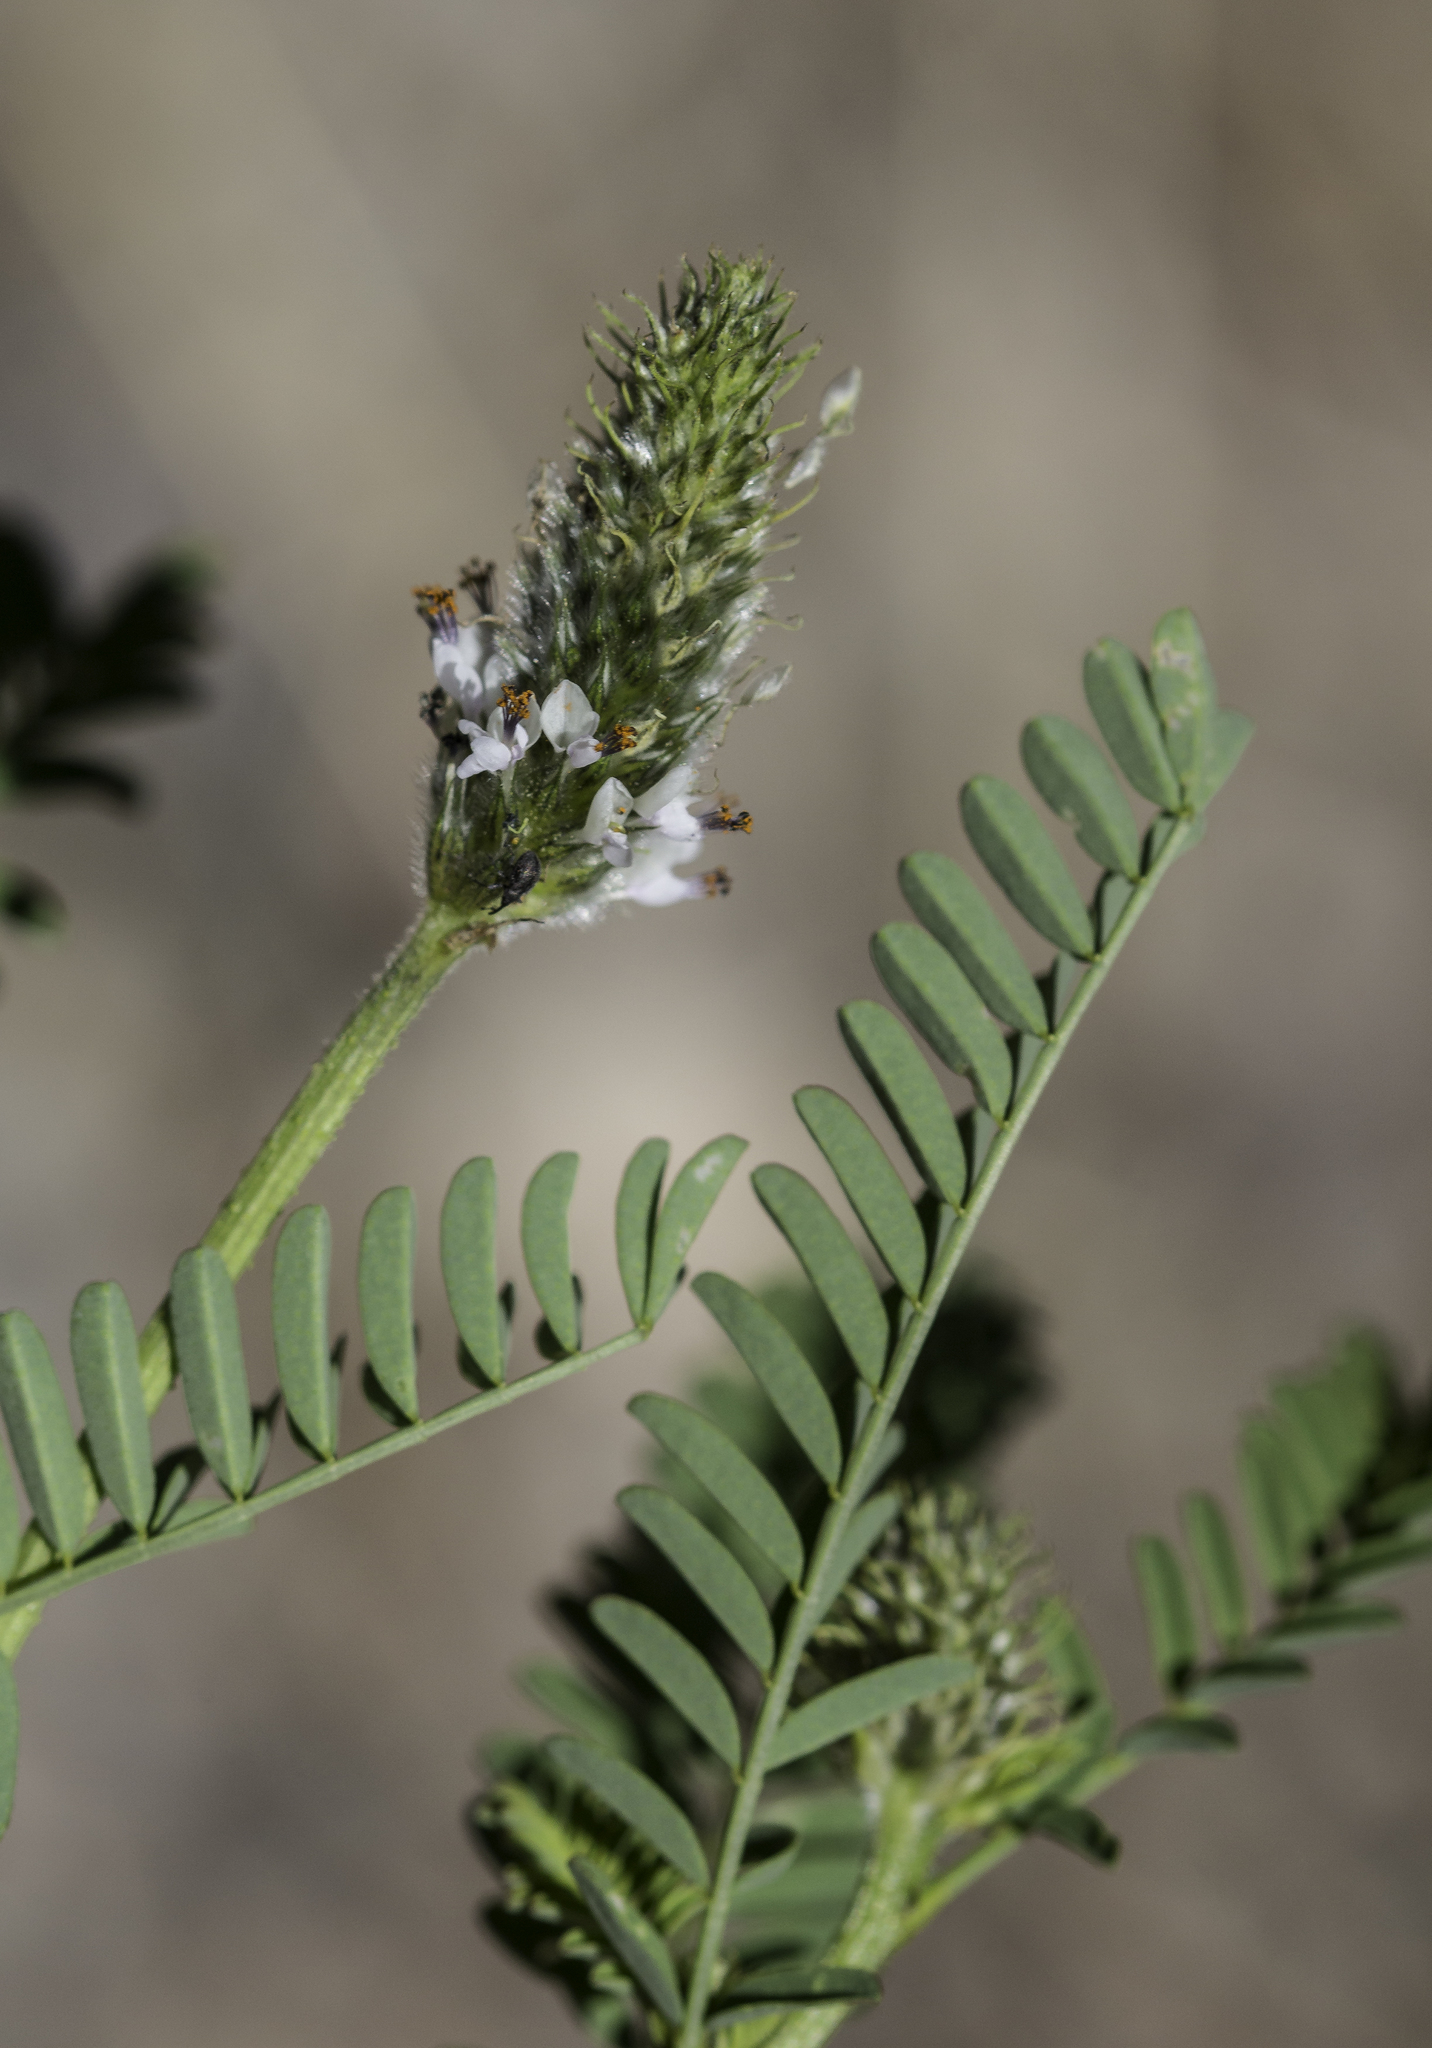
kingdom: Plantae
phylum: Tracheophyta
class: Magnoliopsida
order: Fabales
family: Fabaceae
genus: Dalea
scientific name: Dalea leporina
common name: Foxtail dalea
